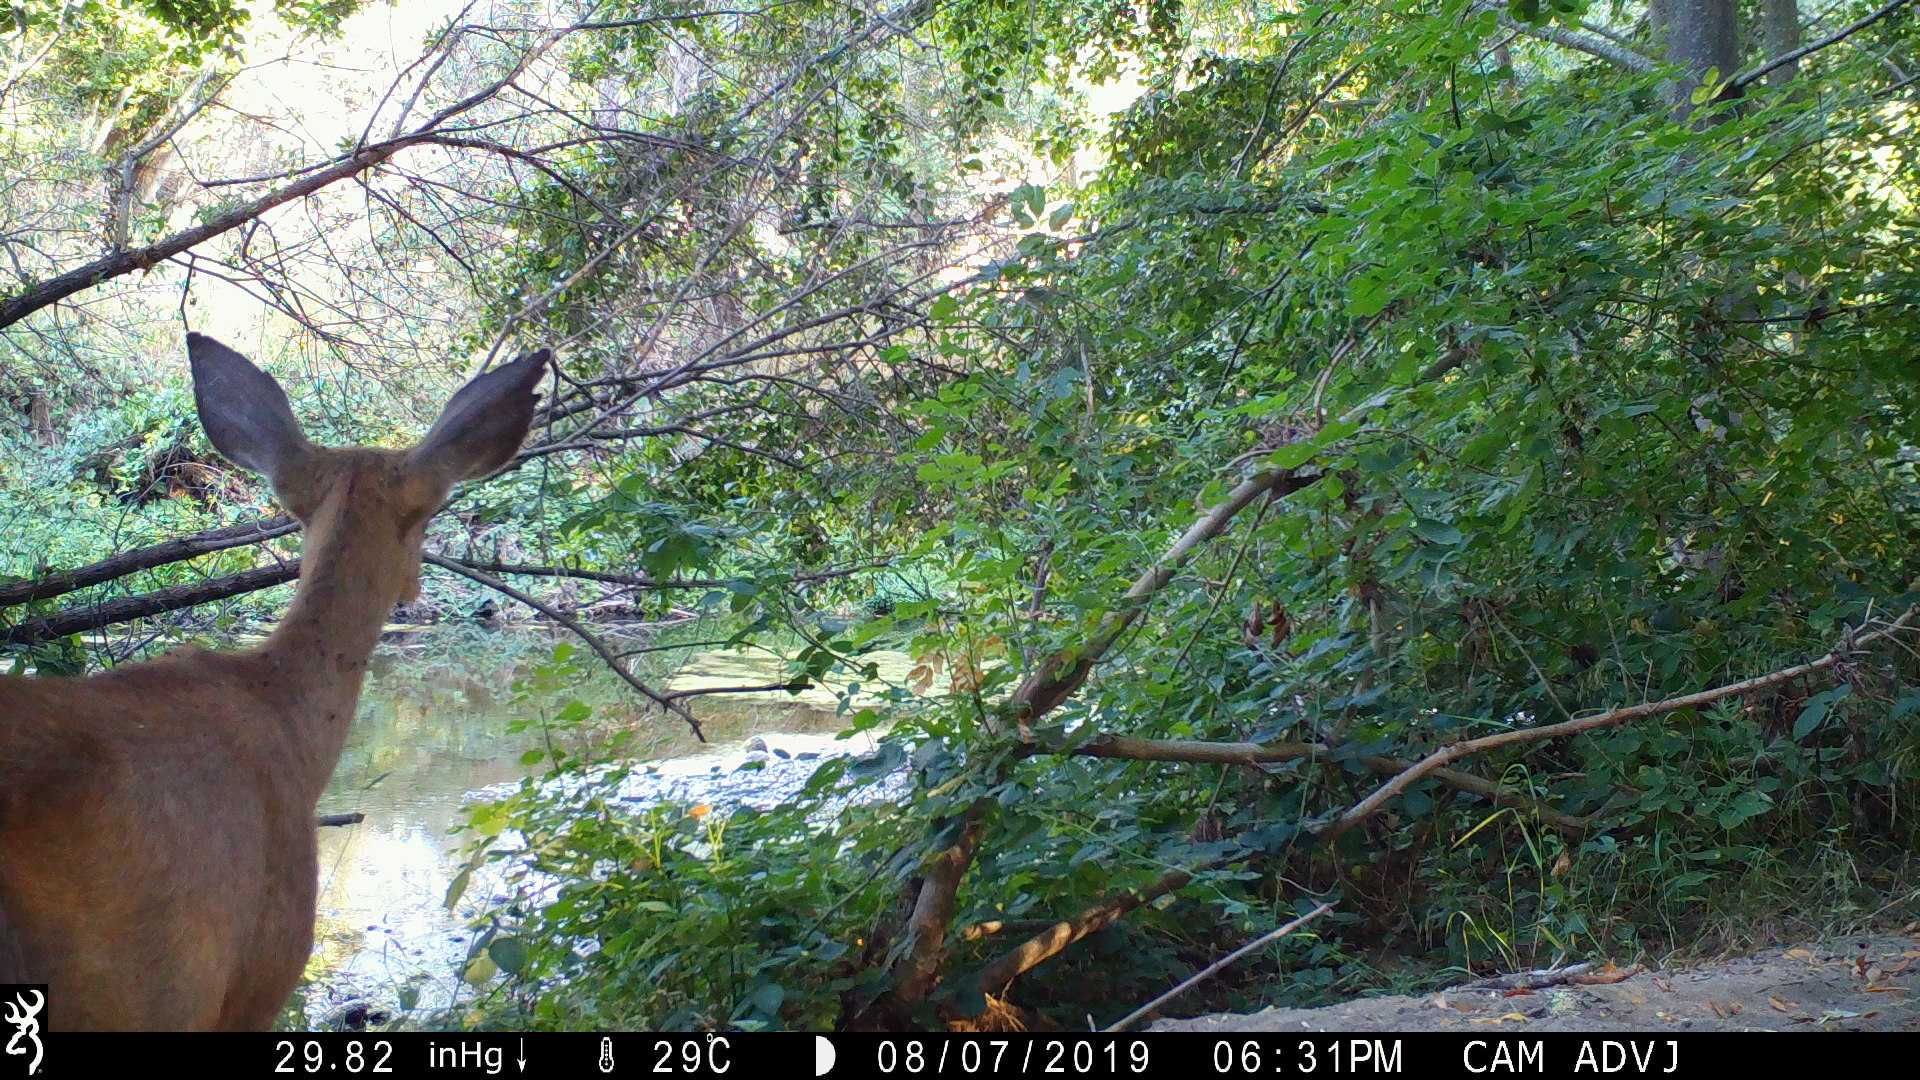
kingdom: Animalia
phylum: Chordata
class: Mammalia
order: Artiodactyla
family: Cervidae
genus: Odocoileus
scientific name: Odocoileus hemionus
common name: Mule deer
